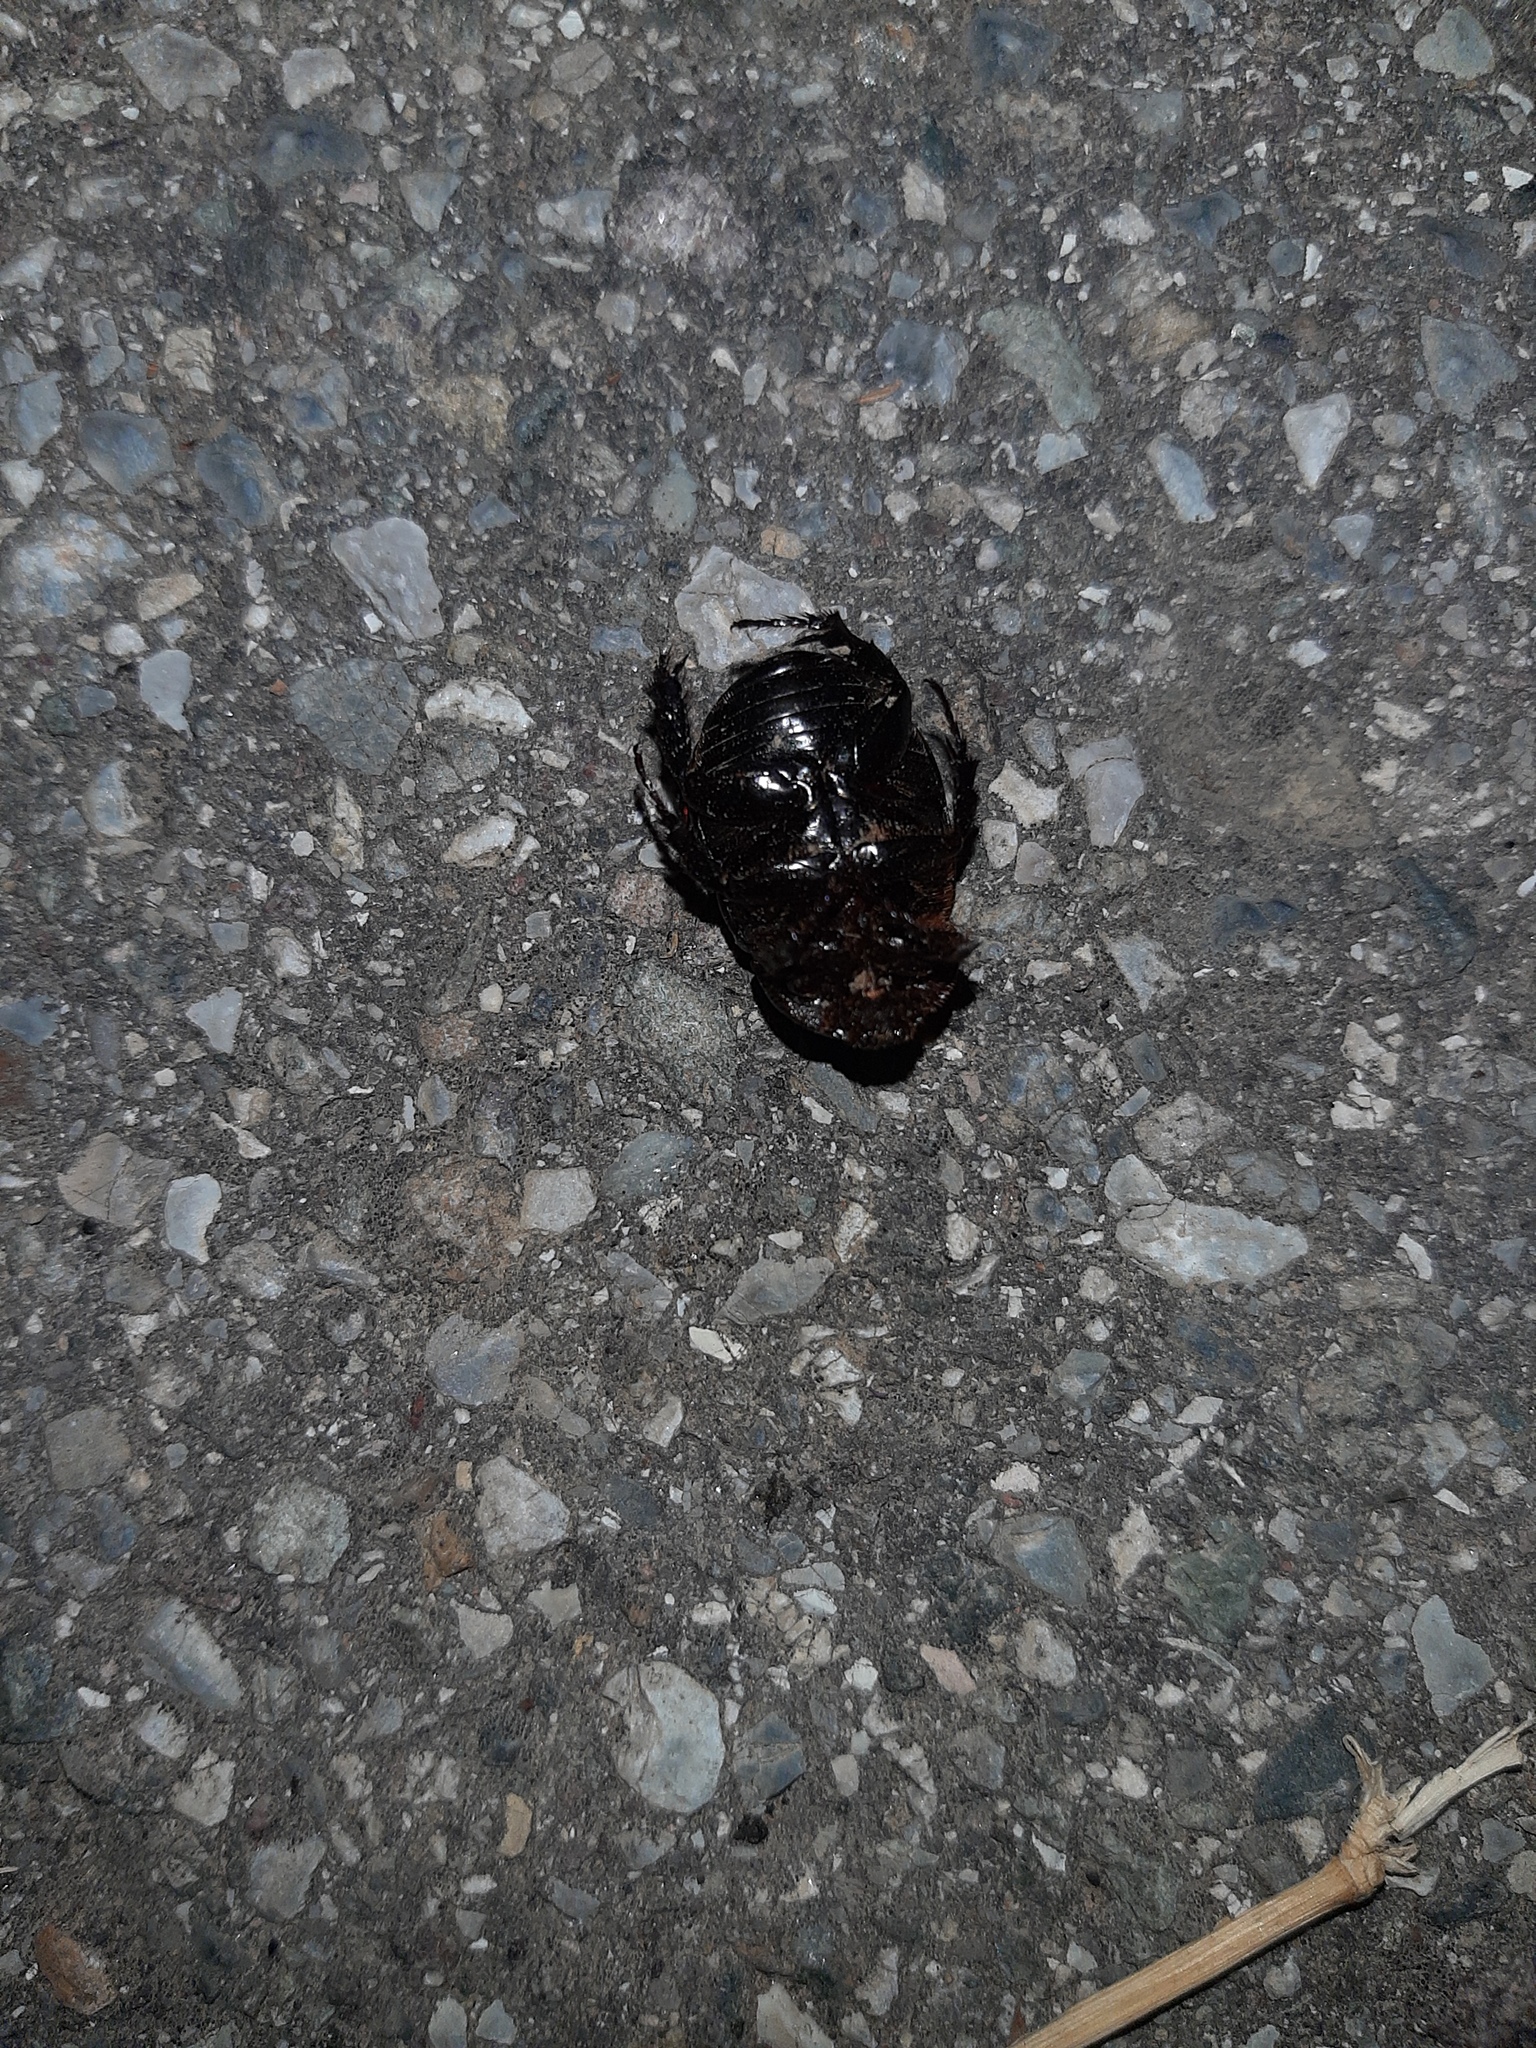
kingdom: Animalia
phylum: Arthropoda
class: Insecta
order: Coleoptera
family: Scarabaeidae
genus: Pentodon
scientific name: Pentodon bidens
